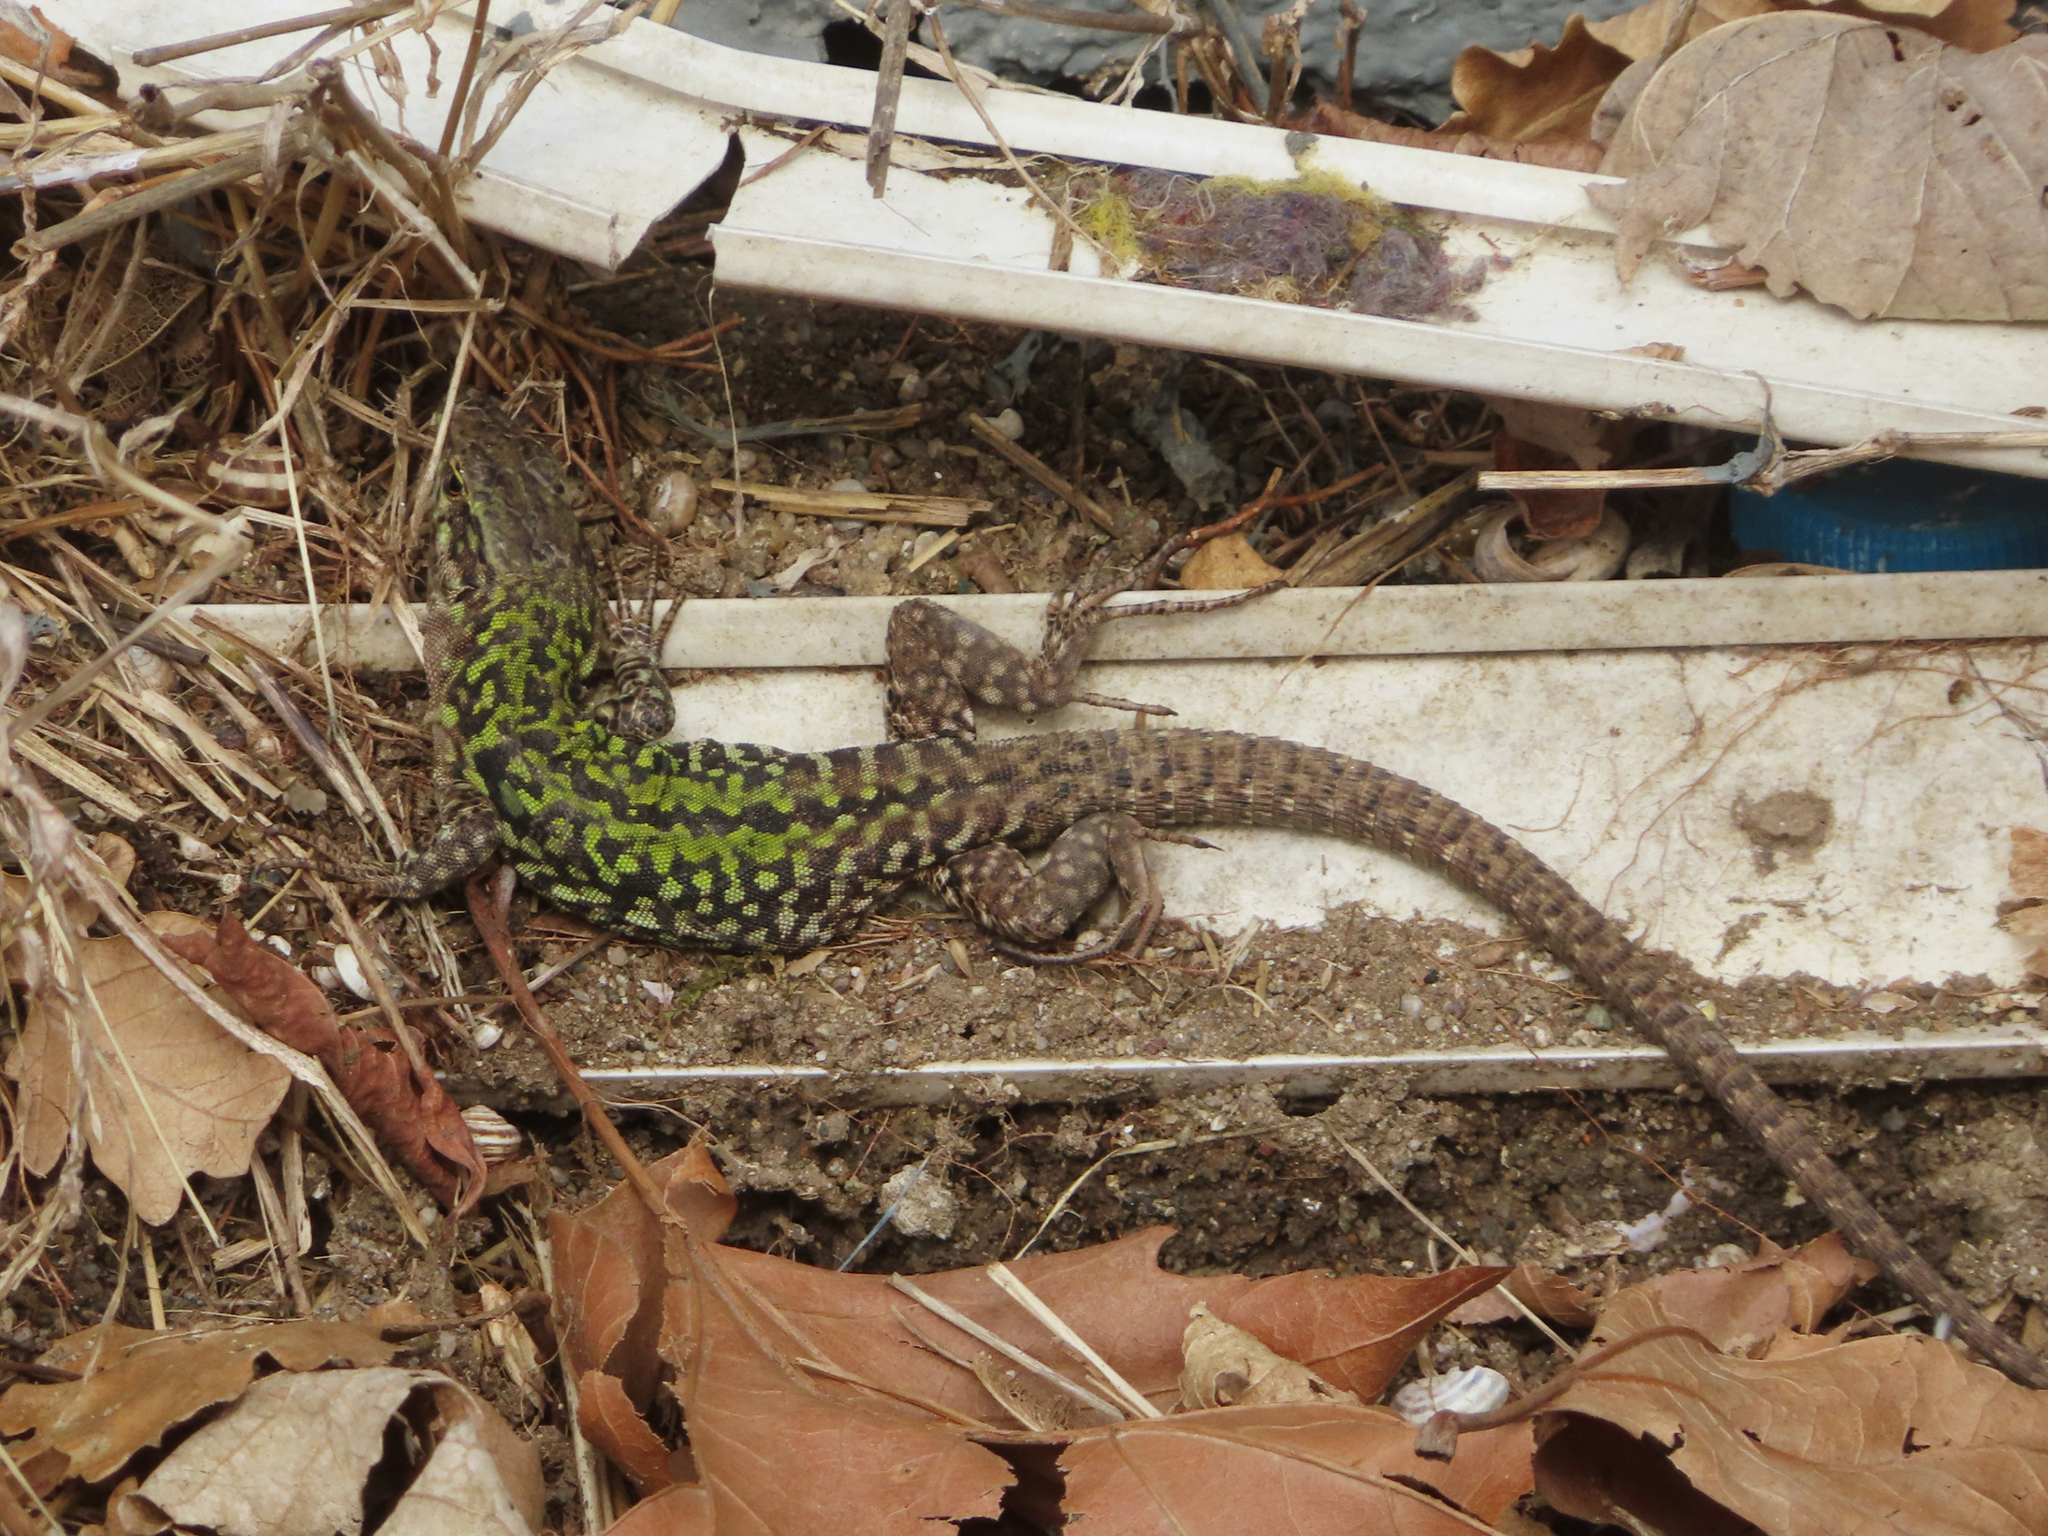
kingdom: Animalia
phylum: Chordata
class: Squamata
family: Lacertidae
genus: Podarcis
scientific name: Podarcis siculus
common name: Italian wall lizard
